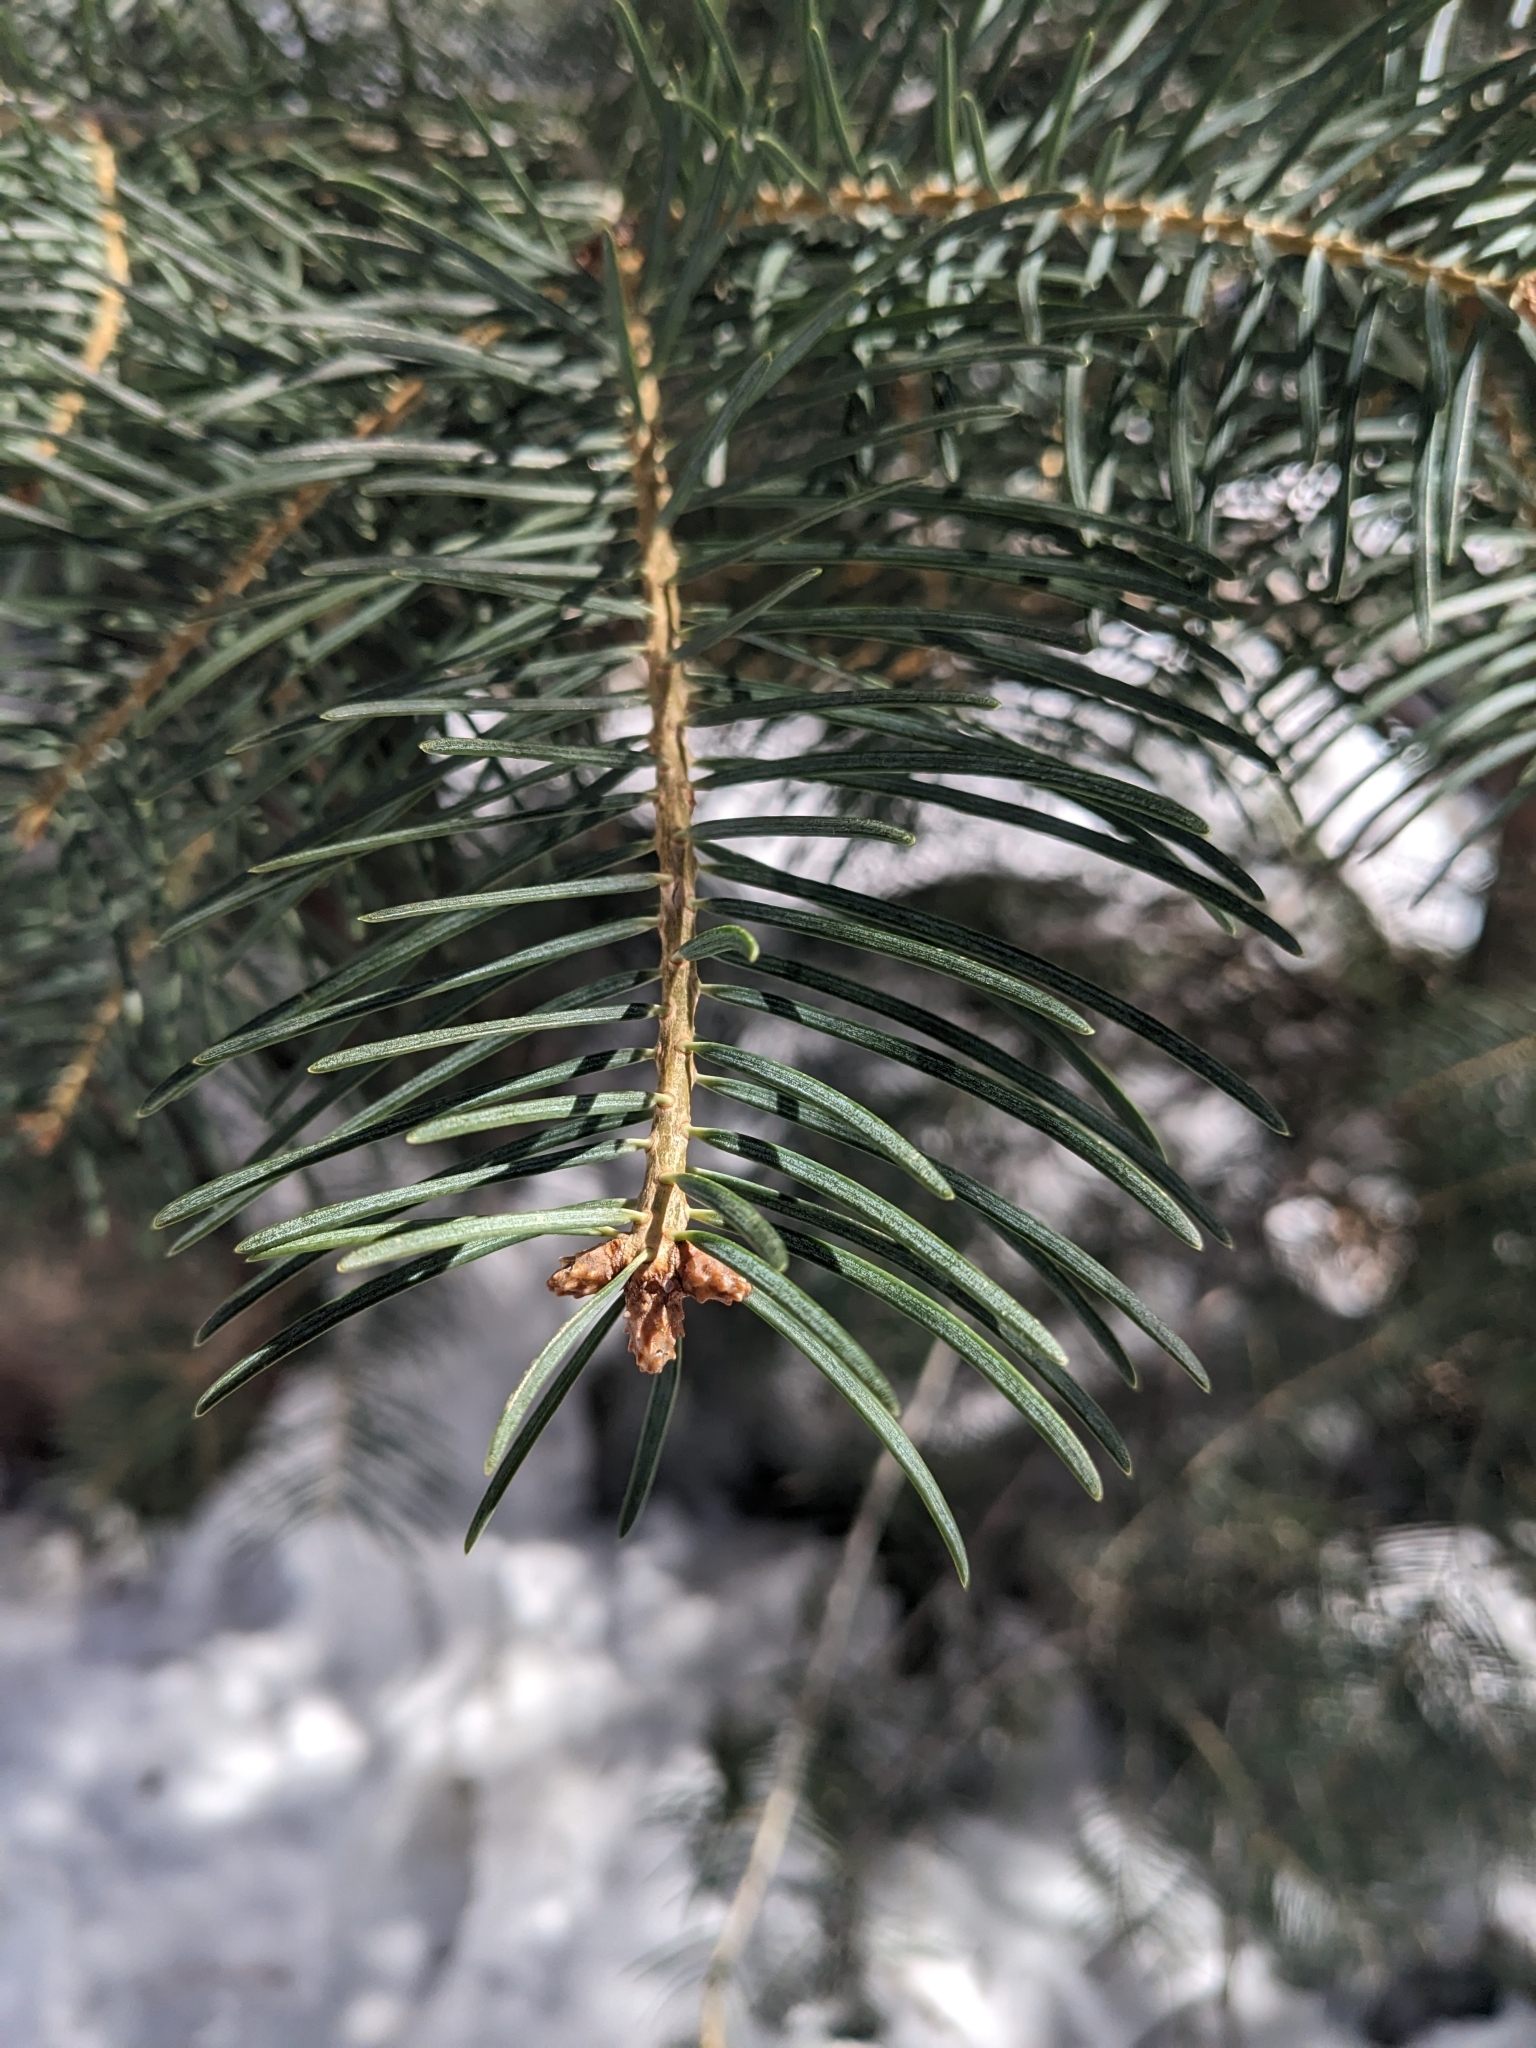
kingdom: Plantae
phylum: Tracheophyta
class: Pinopsida
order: Pinales
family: Pinaceae
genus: Abies
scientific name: Abies concolor
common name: Colorado fir
